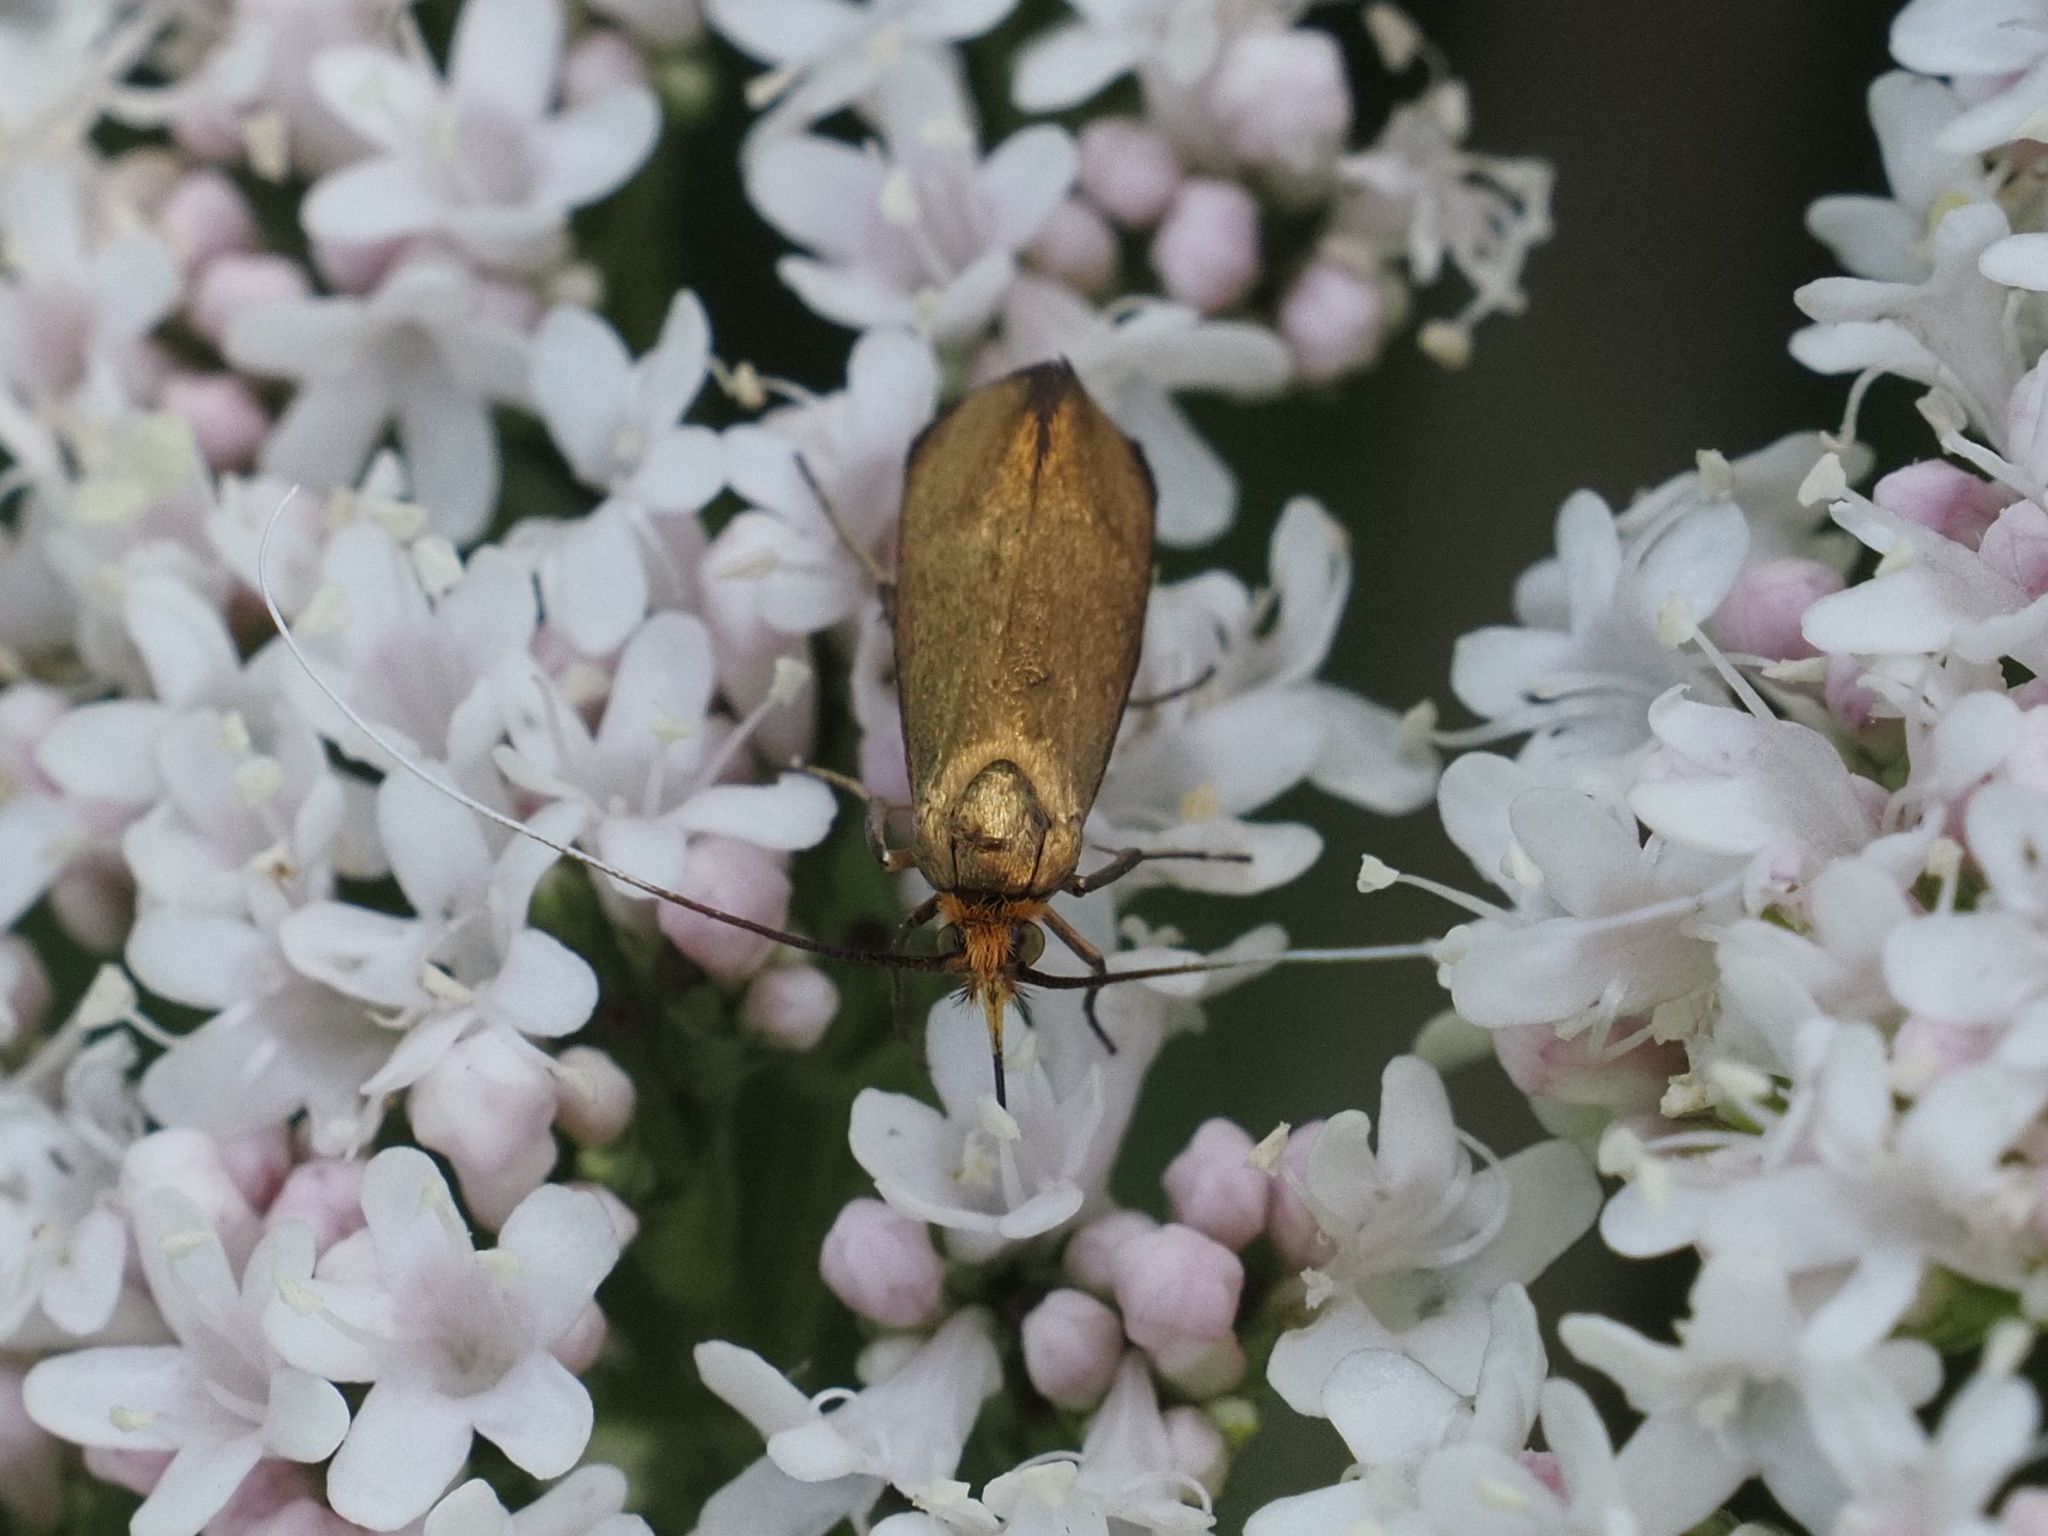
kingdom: Animalia
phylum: Arthropoda
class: Insecta
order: Lepidoptera
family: Adelidae
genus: Adela
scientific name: Adela violella
